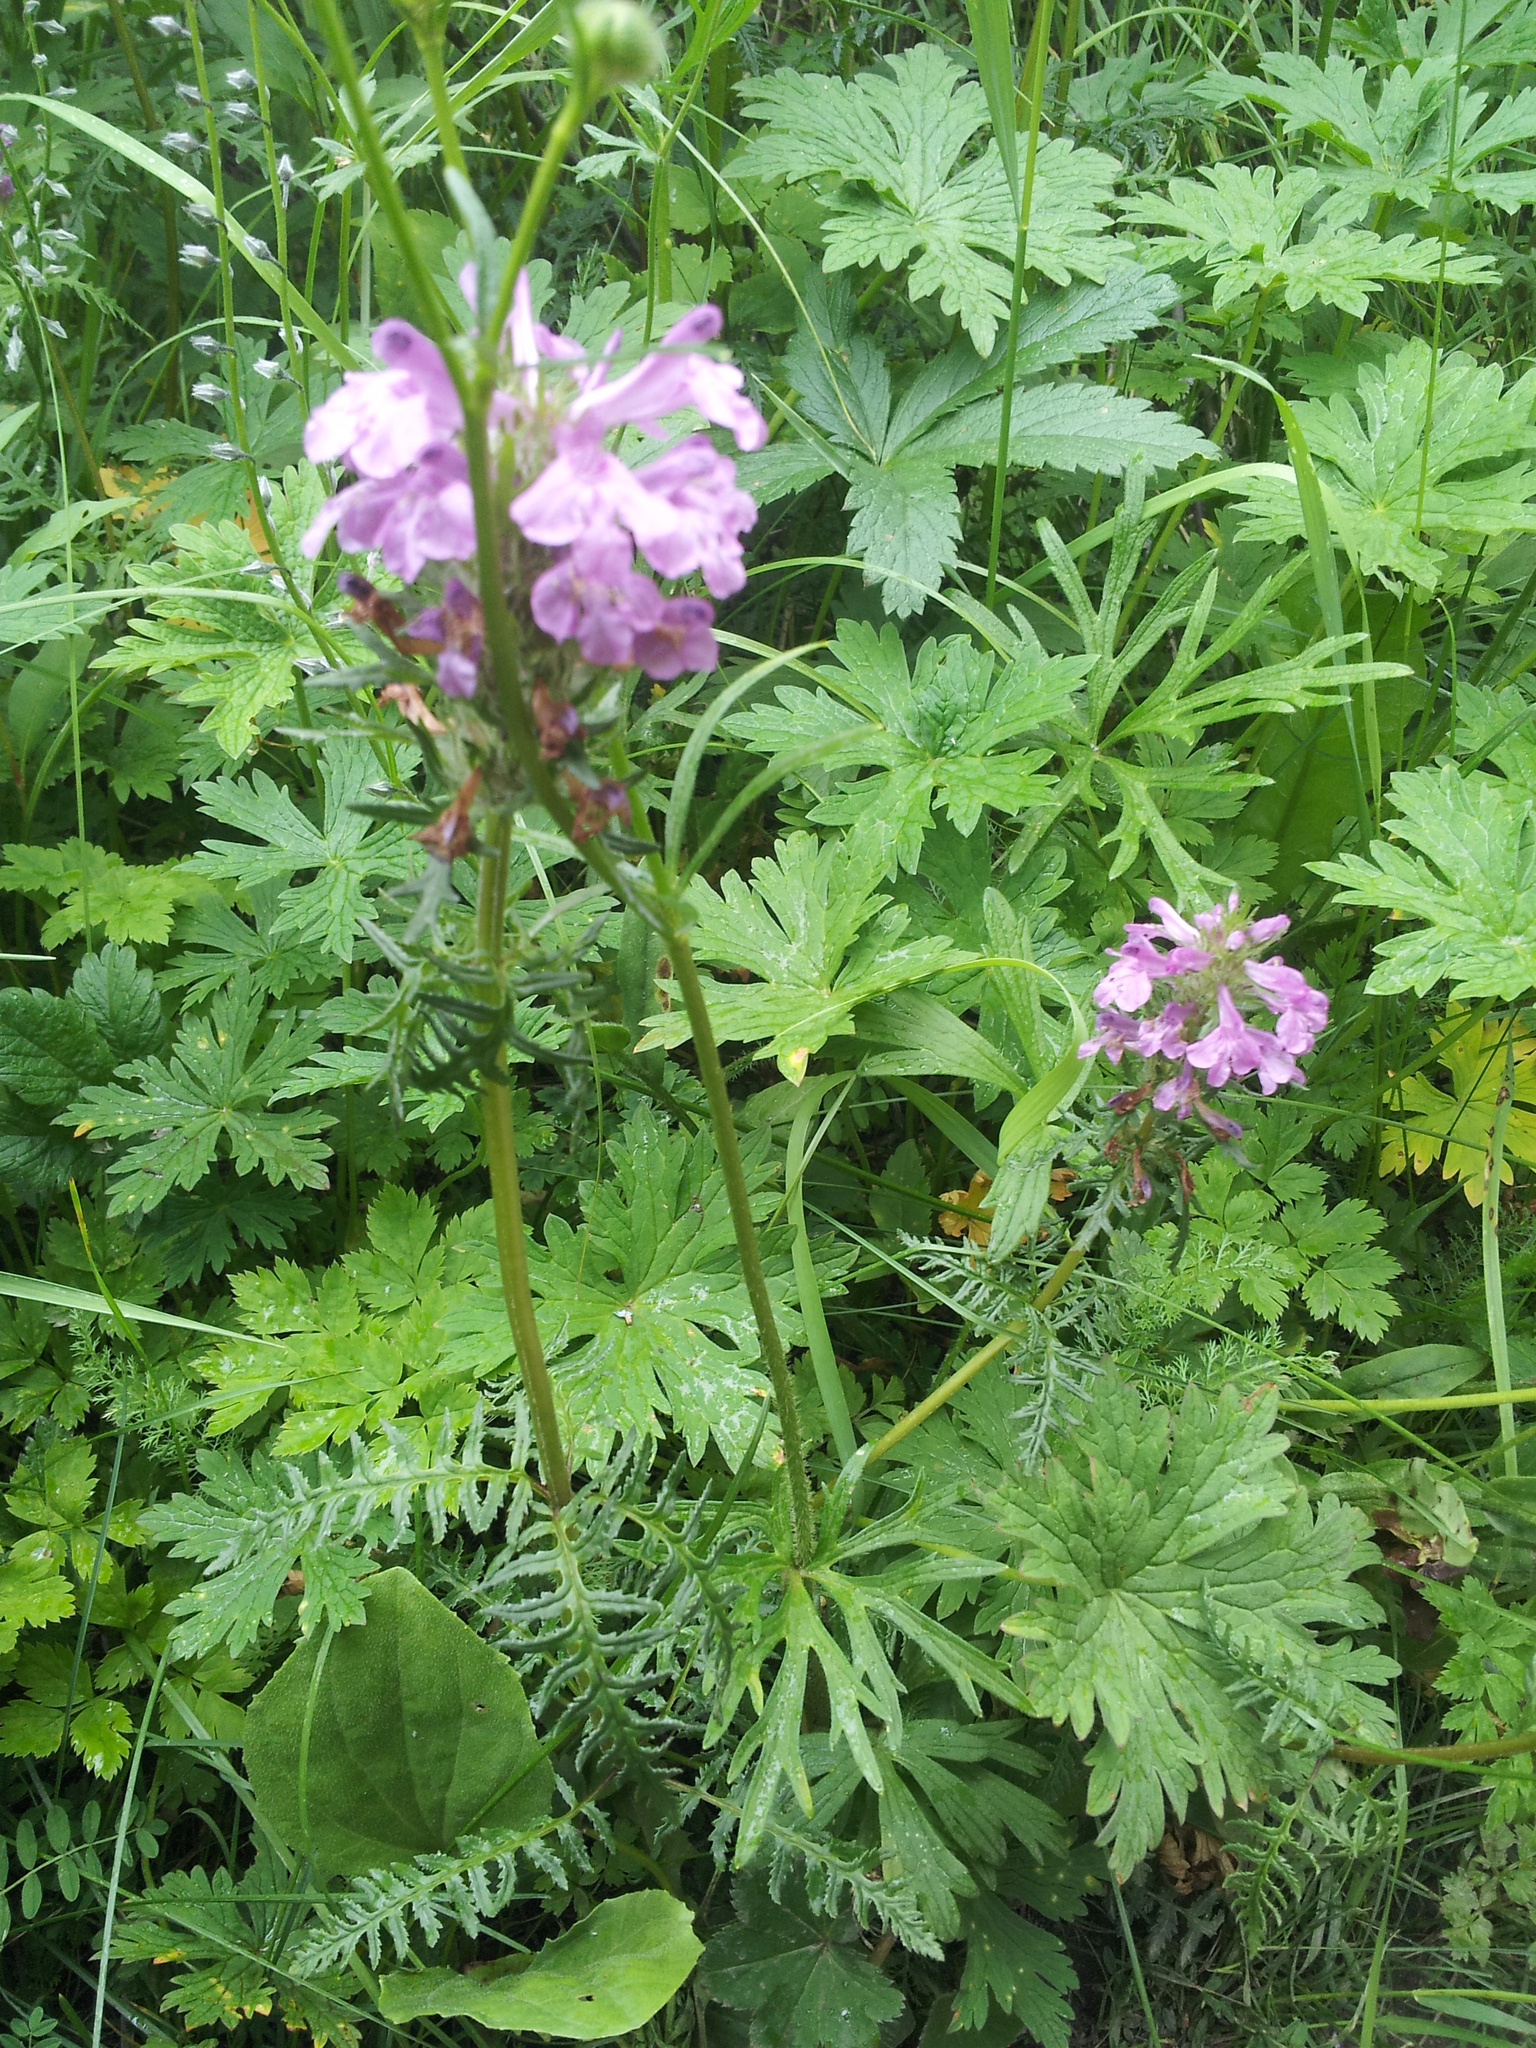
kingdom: Plantae
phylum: Tracheophyta
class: Magnoliopsida
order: Lamiales
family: Orobanchaceae
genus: Pedicularis
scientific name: Pedicularis macrochila
